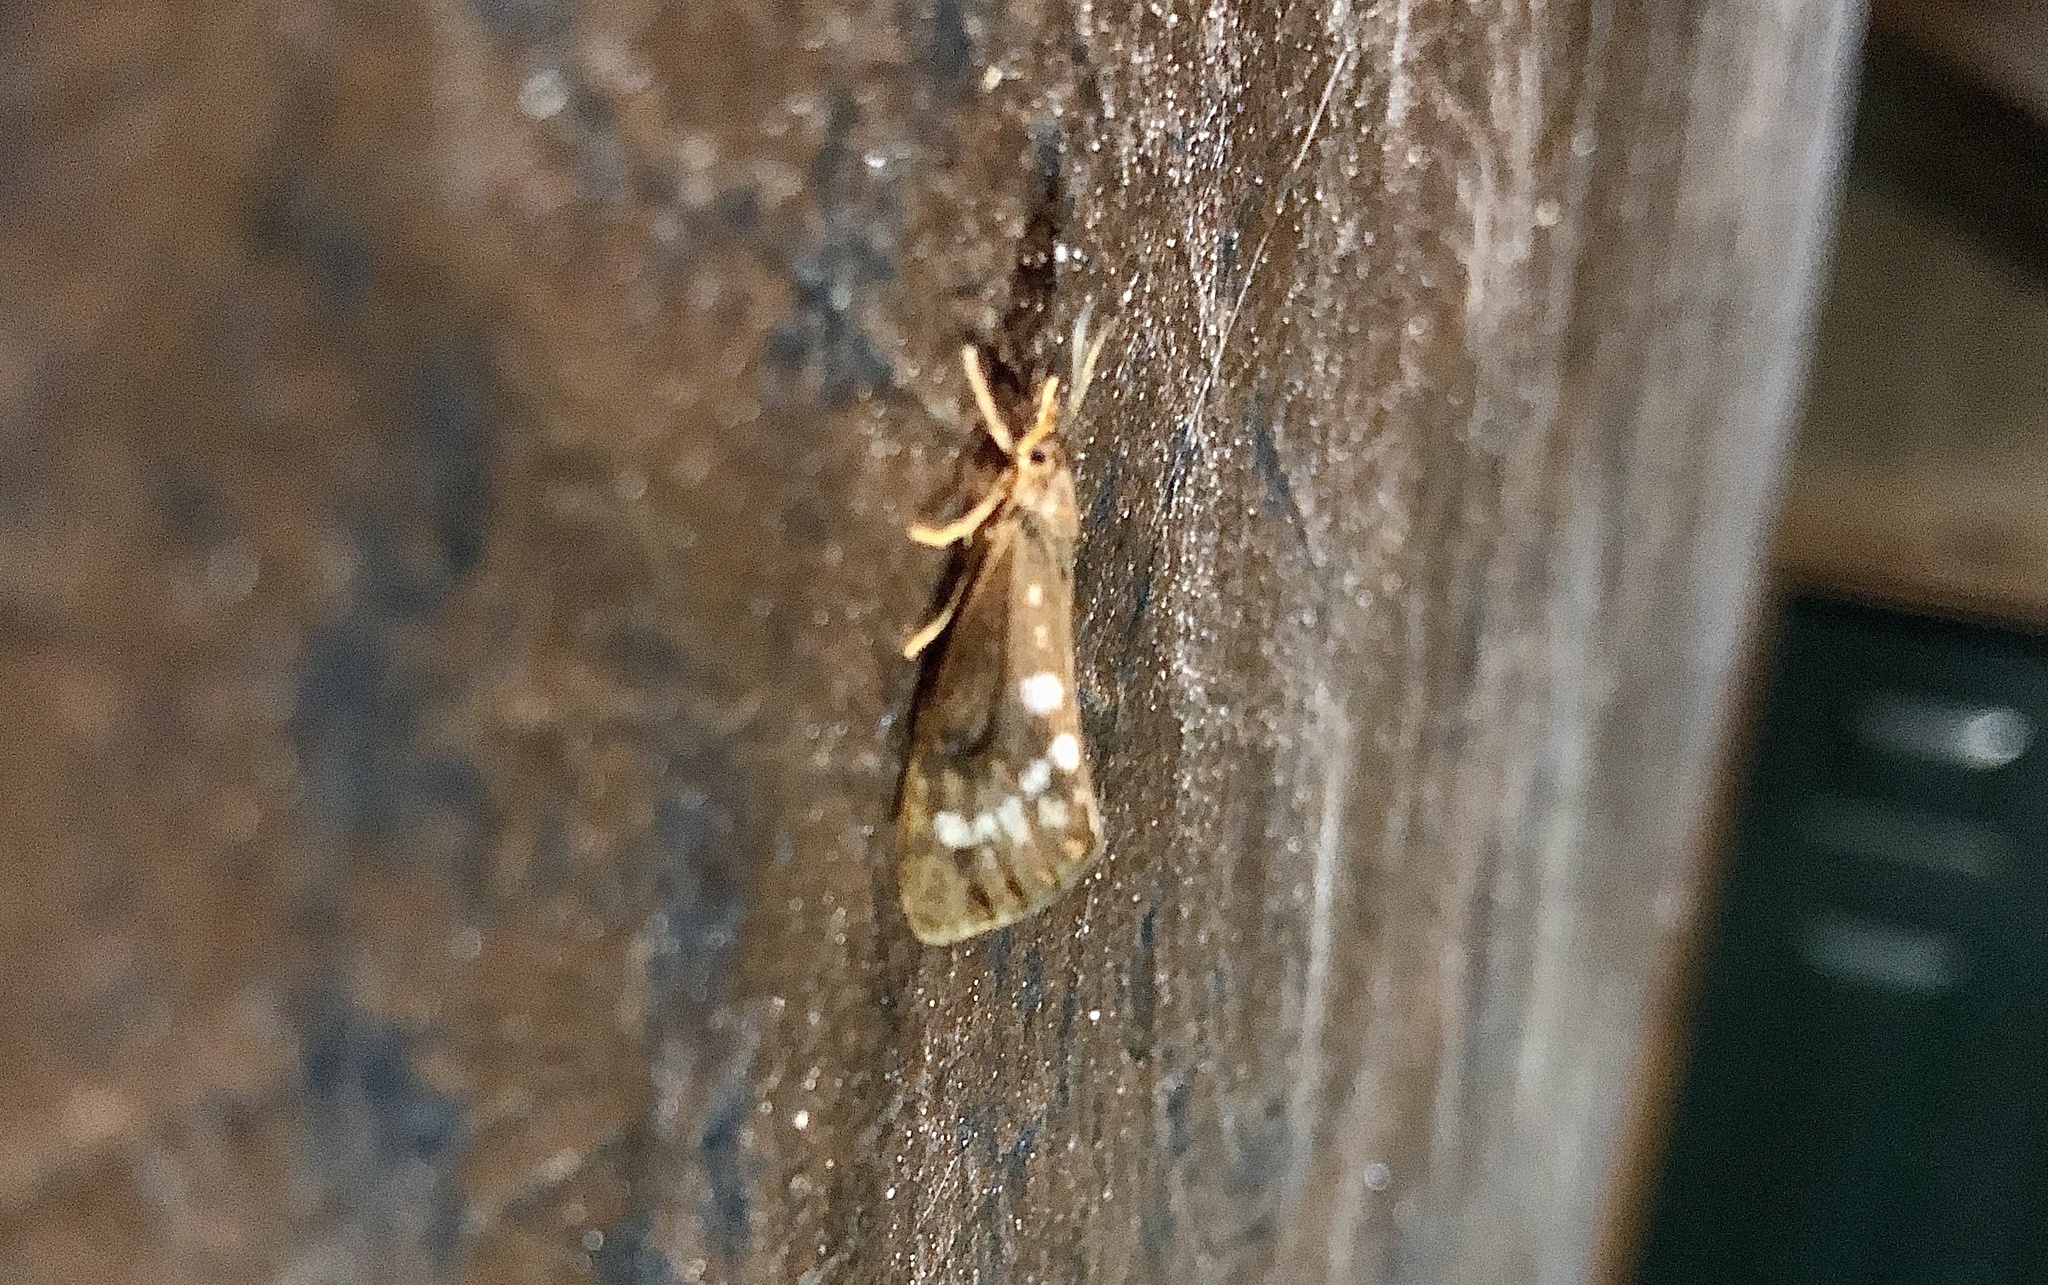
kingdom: Animalia
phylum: Arthropoda
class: Insecta
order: Lepidoptera
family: Erebidae
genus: Virbia
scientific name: Virbia ferruginosa
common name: Rusty virbia moth
